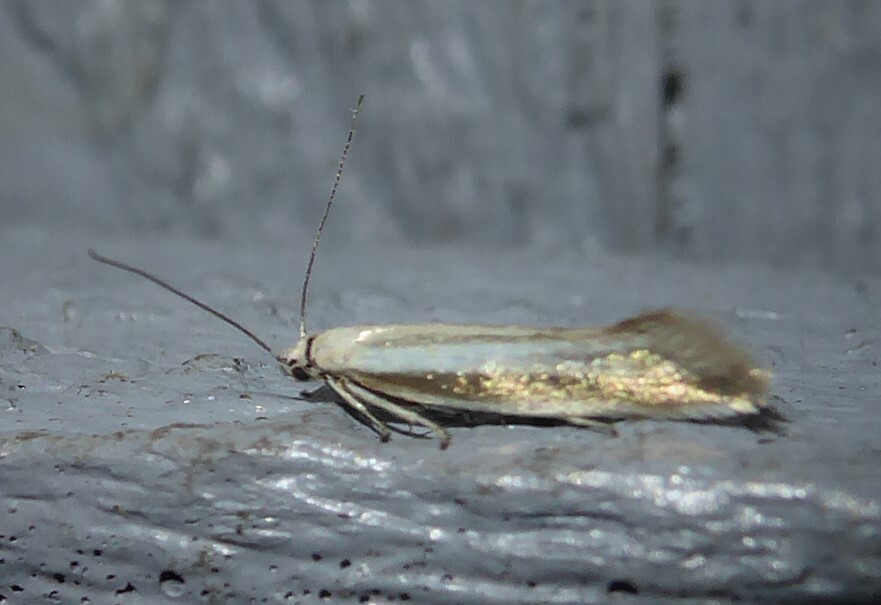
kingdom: Animalia
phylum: Arthropoda
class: Insecta
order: Lepidoptera
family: Glyphipterigidae
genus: Glyphipterix
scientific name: Glyphipterix cionophora
